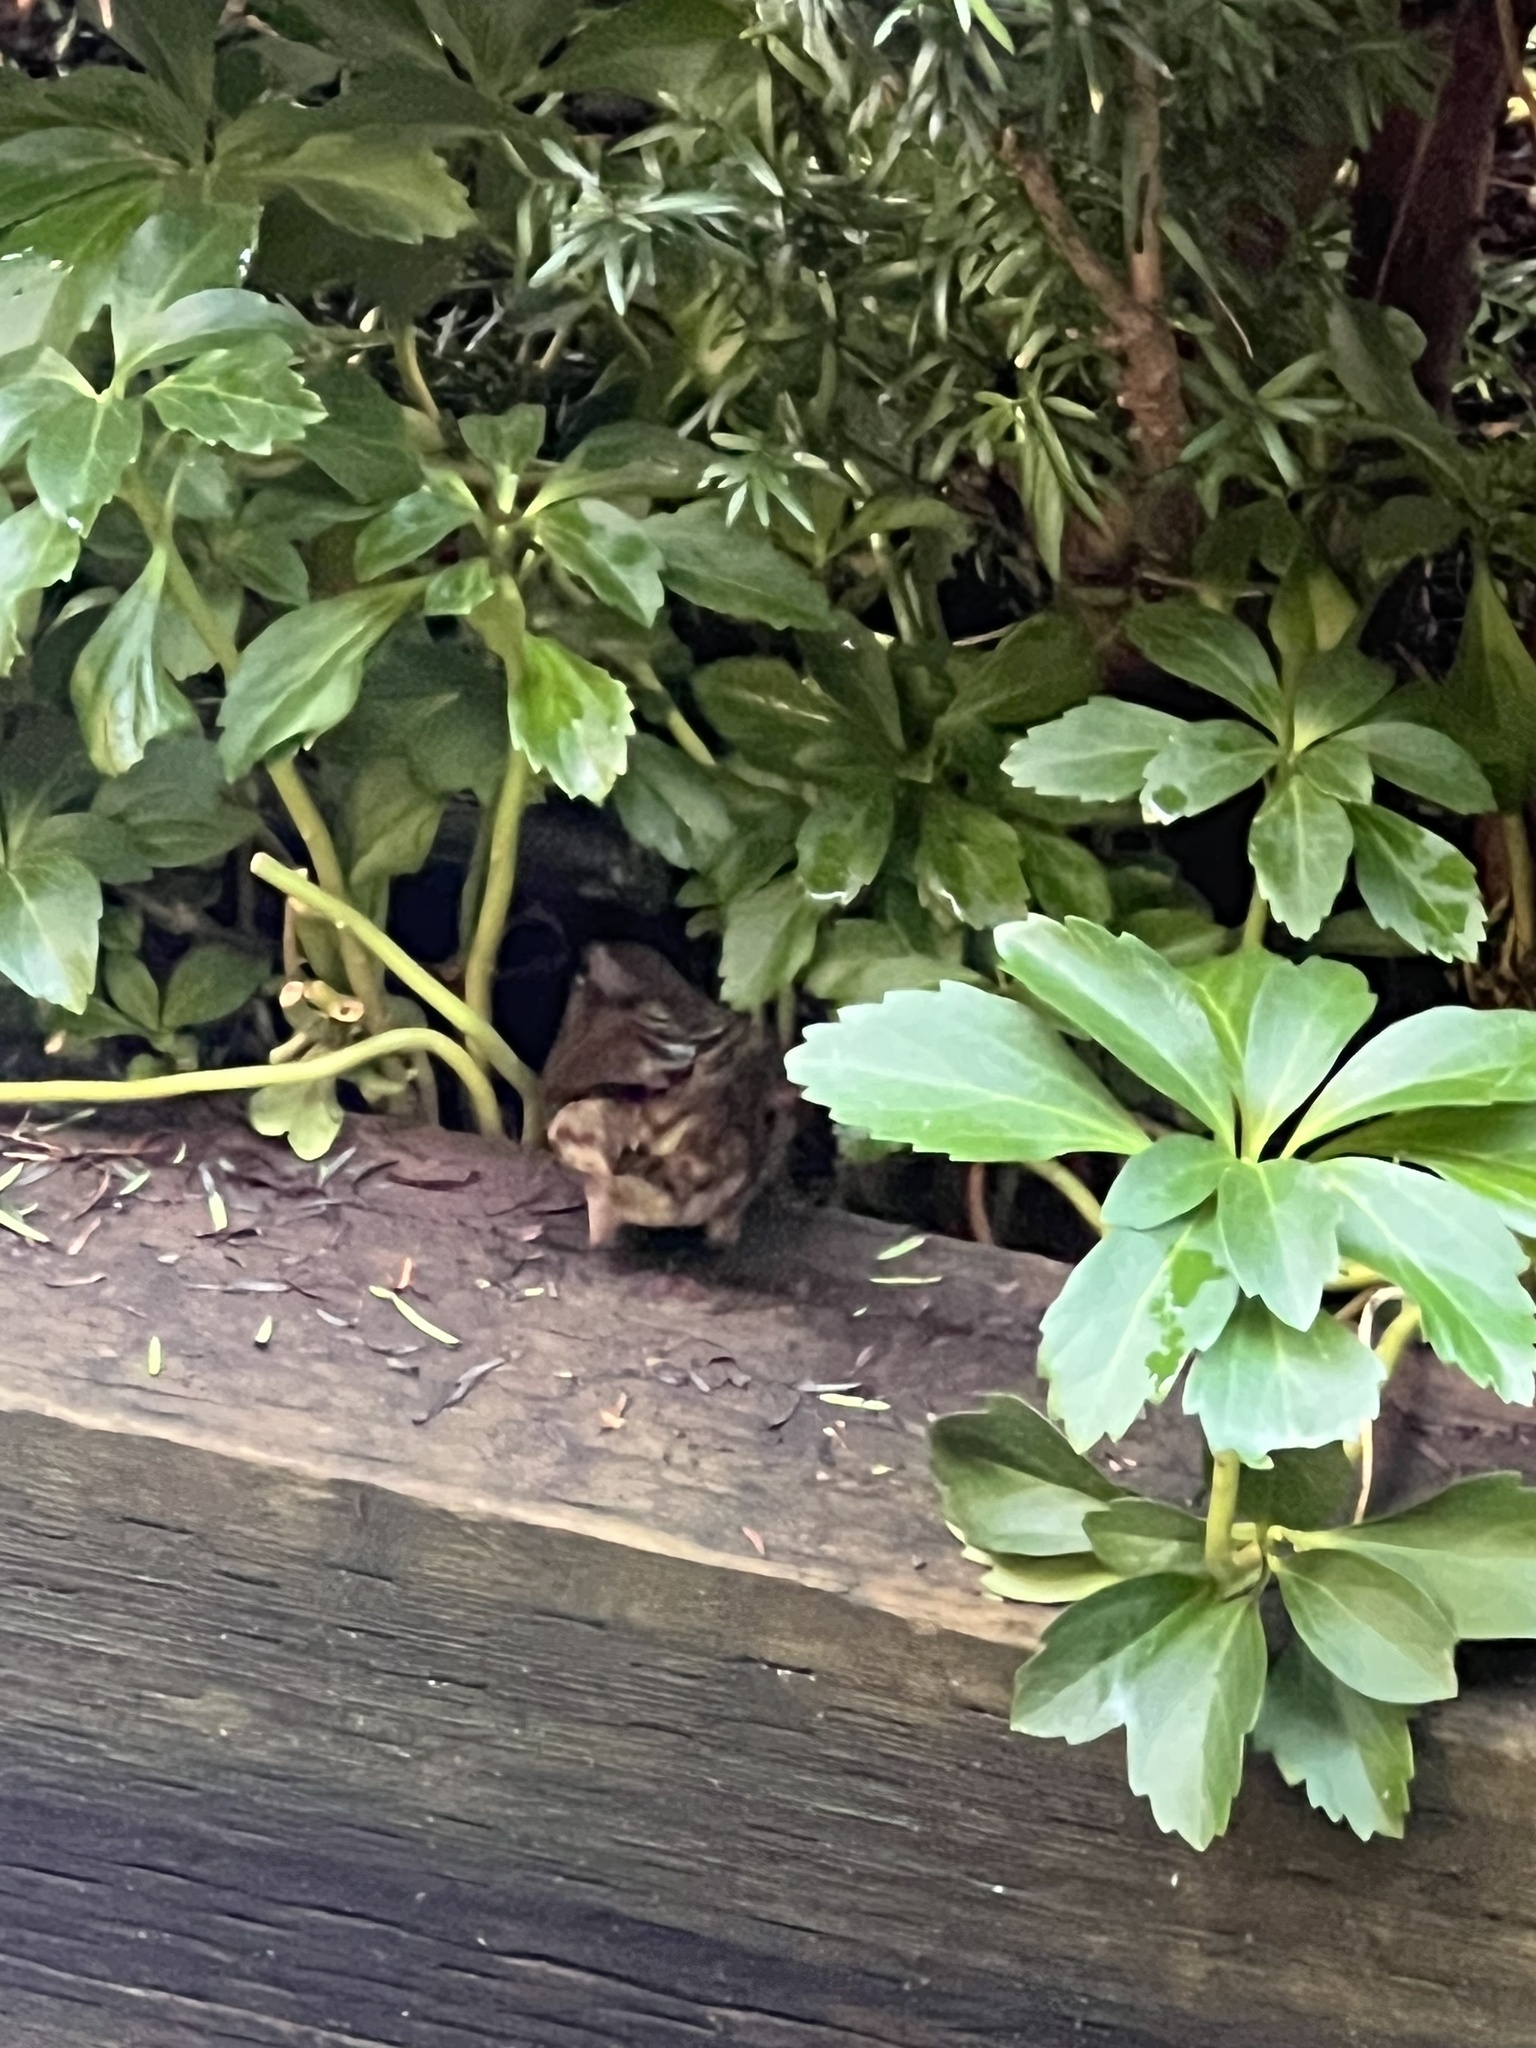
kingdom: Animalia
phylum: Chordata
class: Aves
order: Passeriformes
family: Passerellidae
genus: Melospiza
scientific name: Melospiza melodia
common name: Song sparrow
